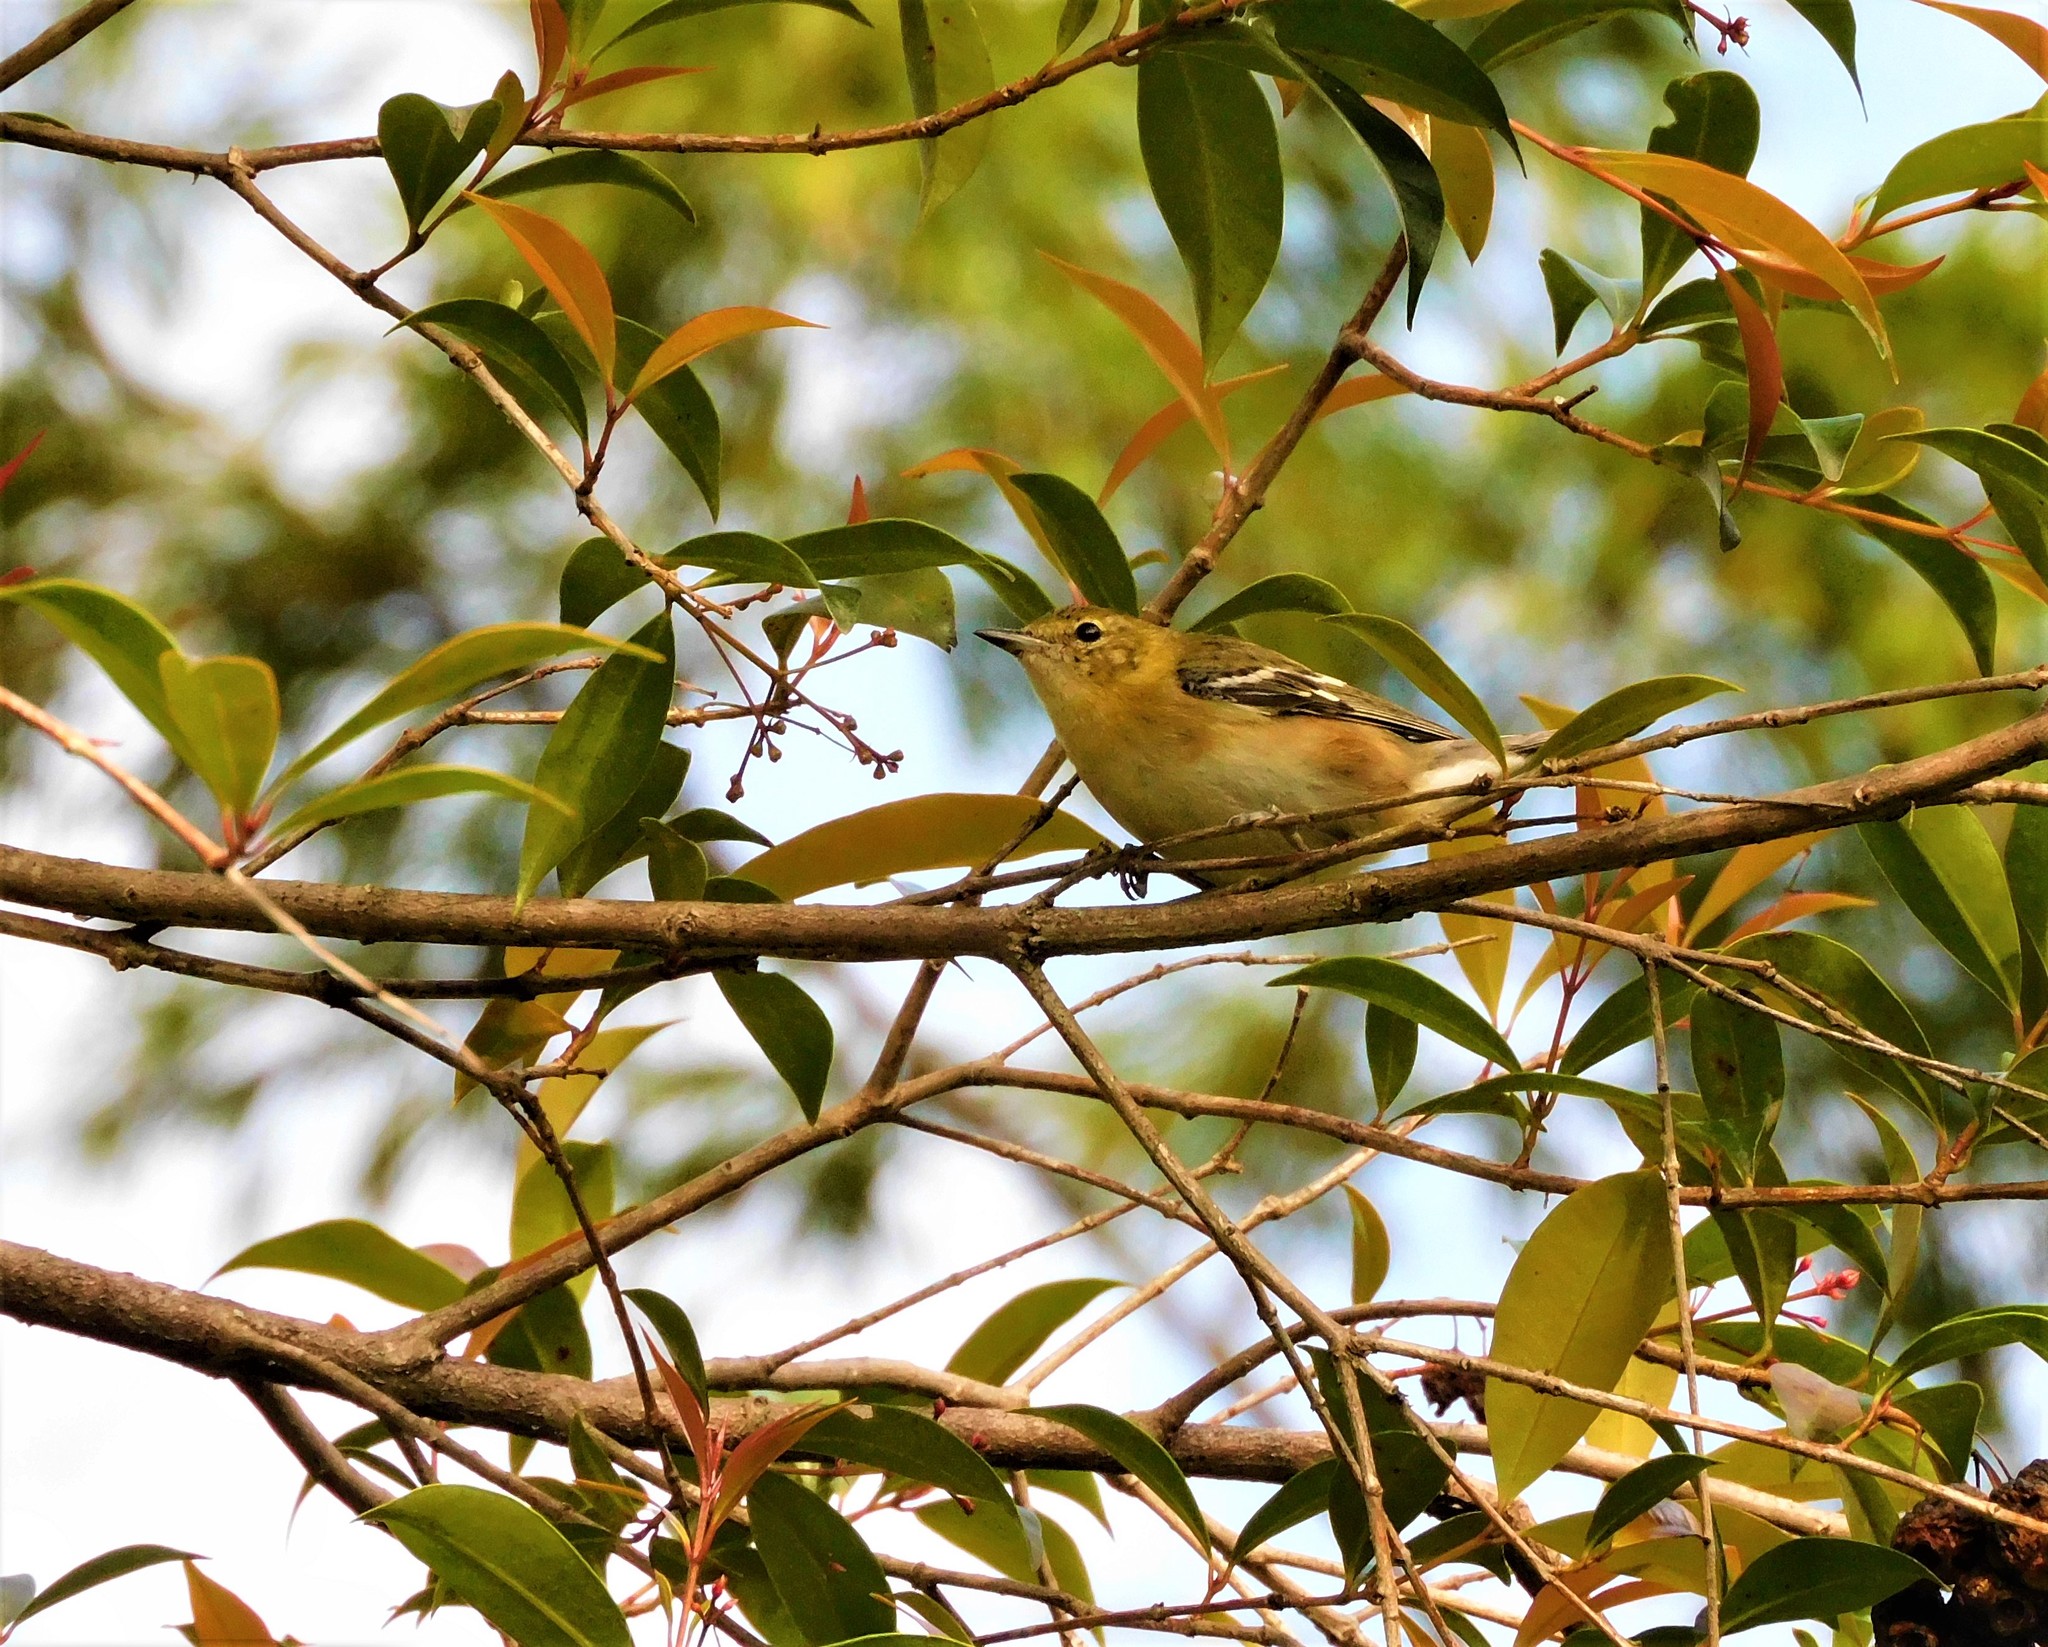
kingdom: Animalia
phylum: Chordata
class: Aves
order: Passeriformes
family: Parulidae
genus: Setophaga
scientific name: Setophaga castanea
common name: Bay-breasted warbler
